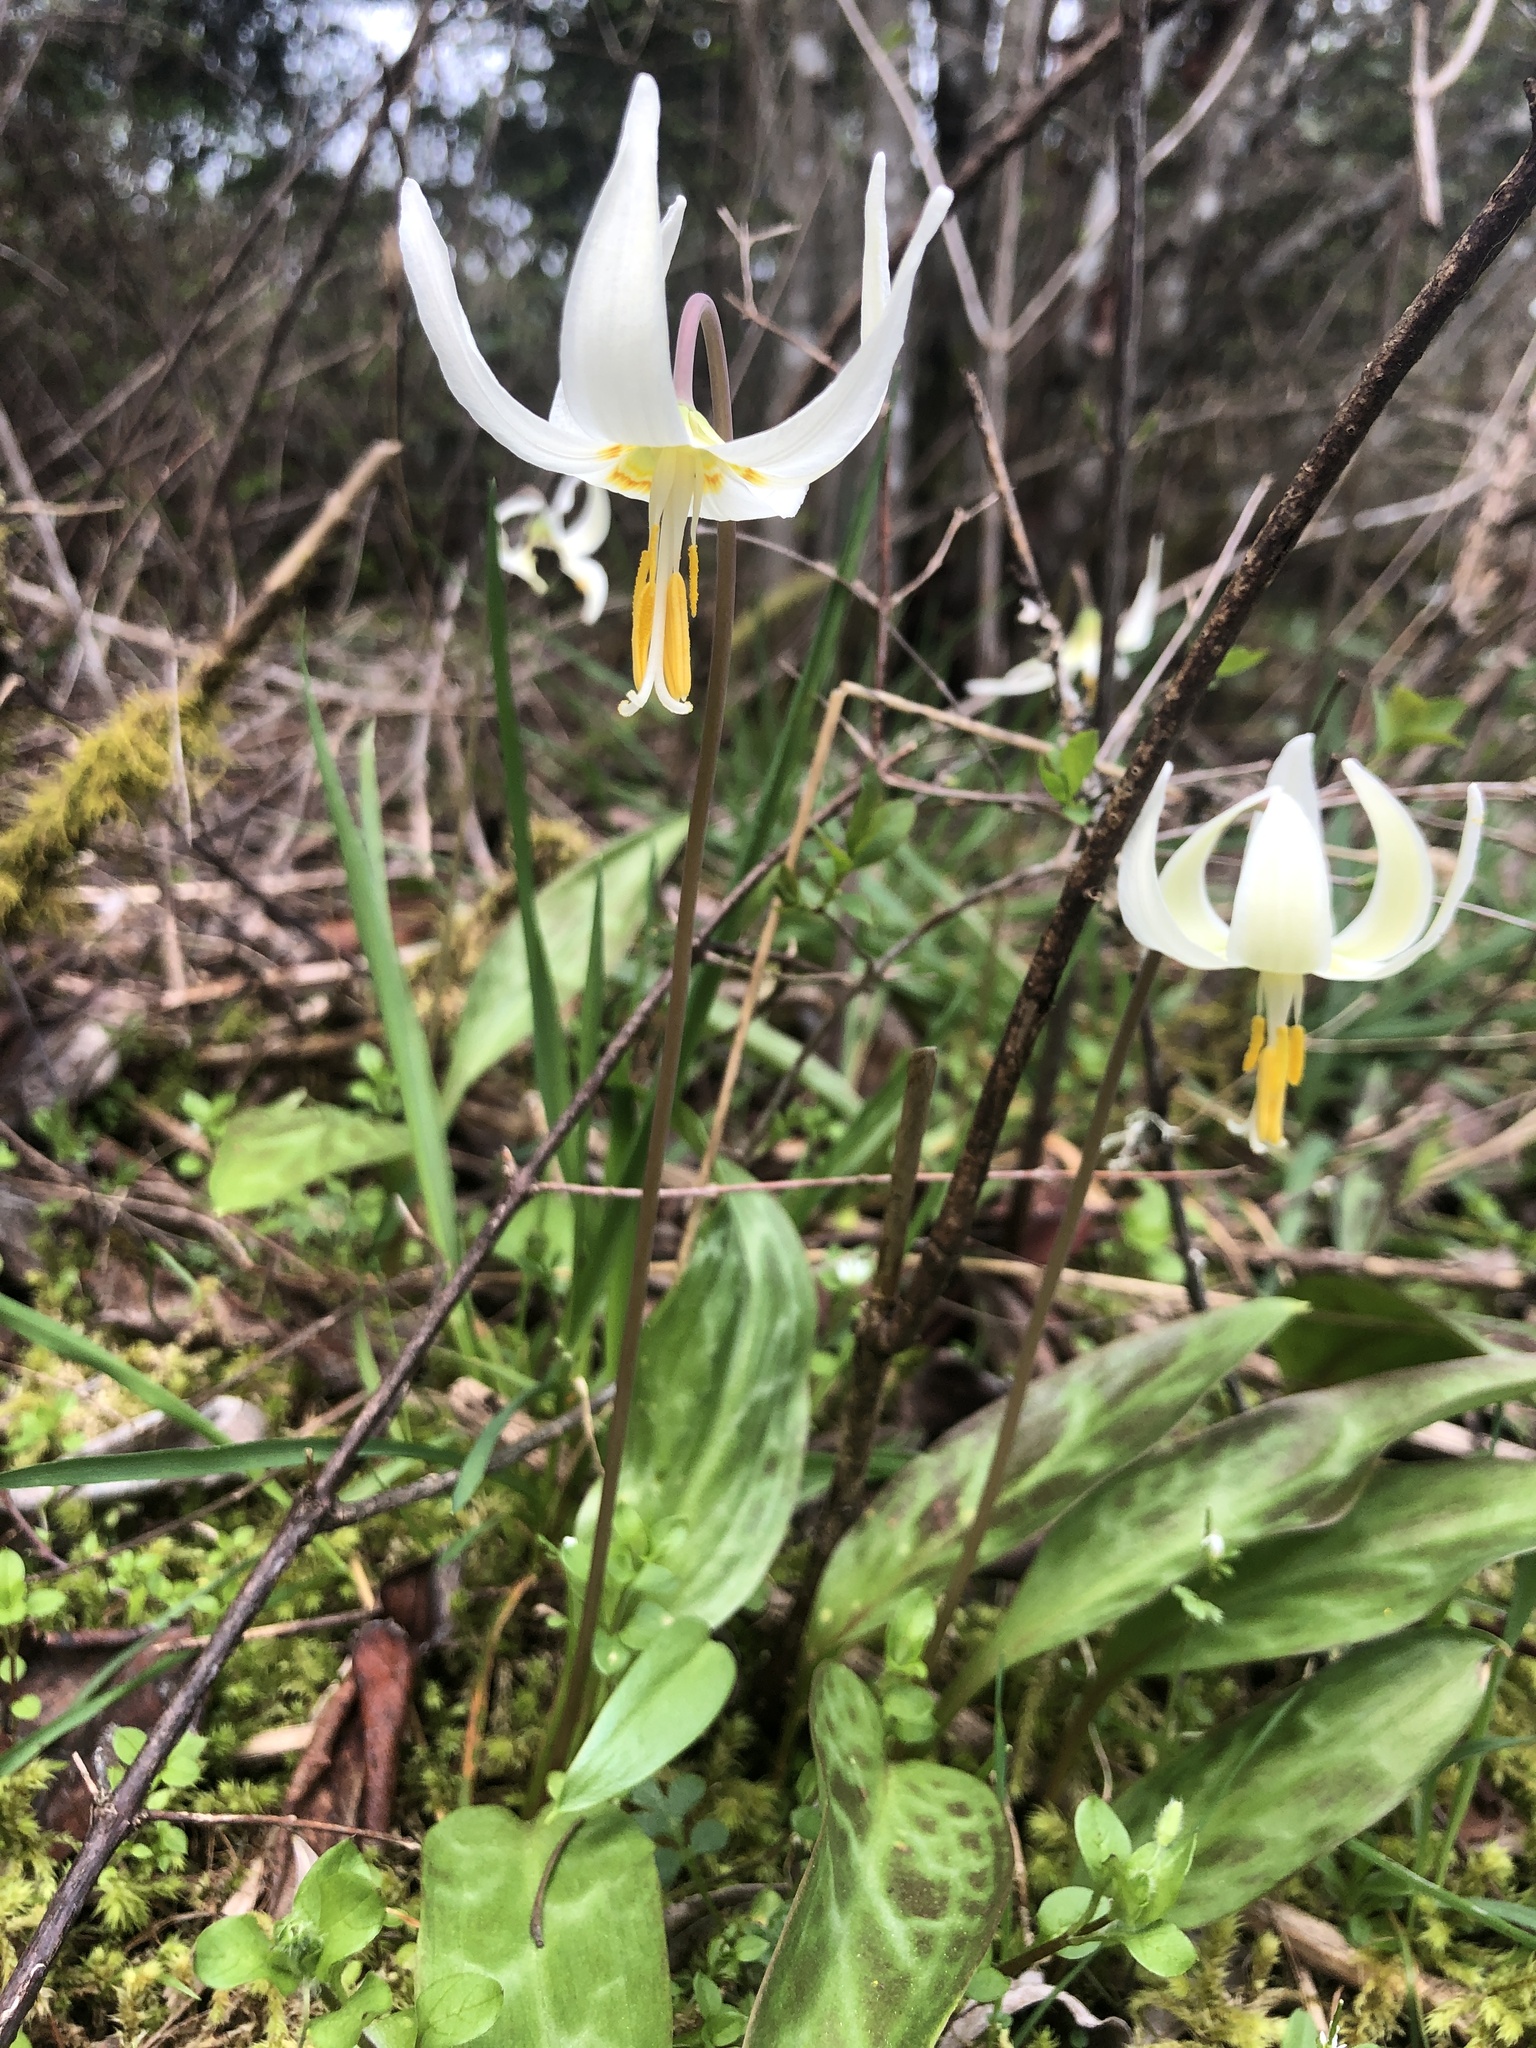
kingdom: Plantae
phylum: Tracheophyta
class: Liliopsida
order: Liliales
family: Liliaceae
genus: Erythronium
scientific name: Erythronium oregonum
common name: Giant adder's-tongue
